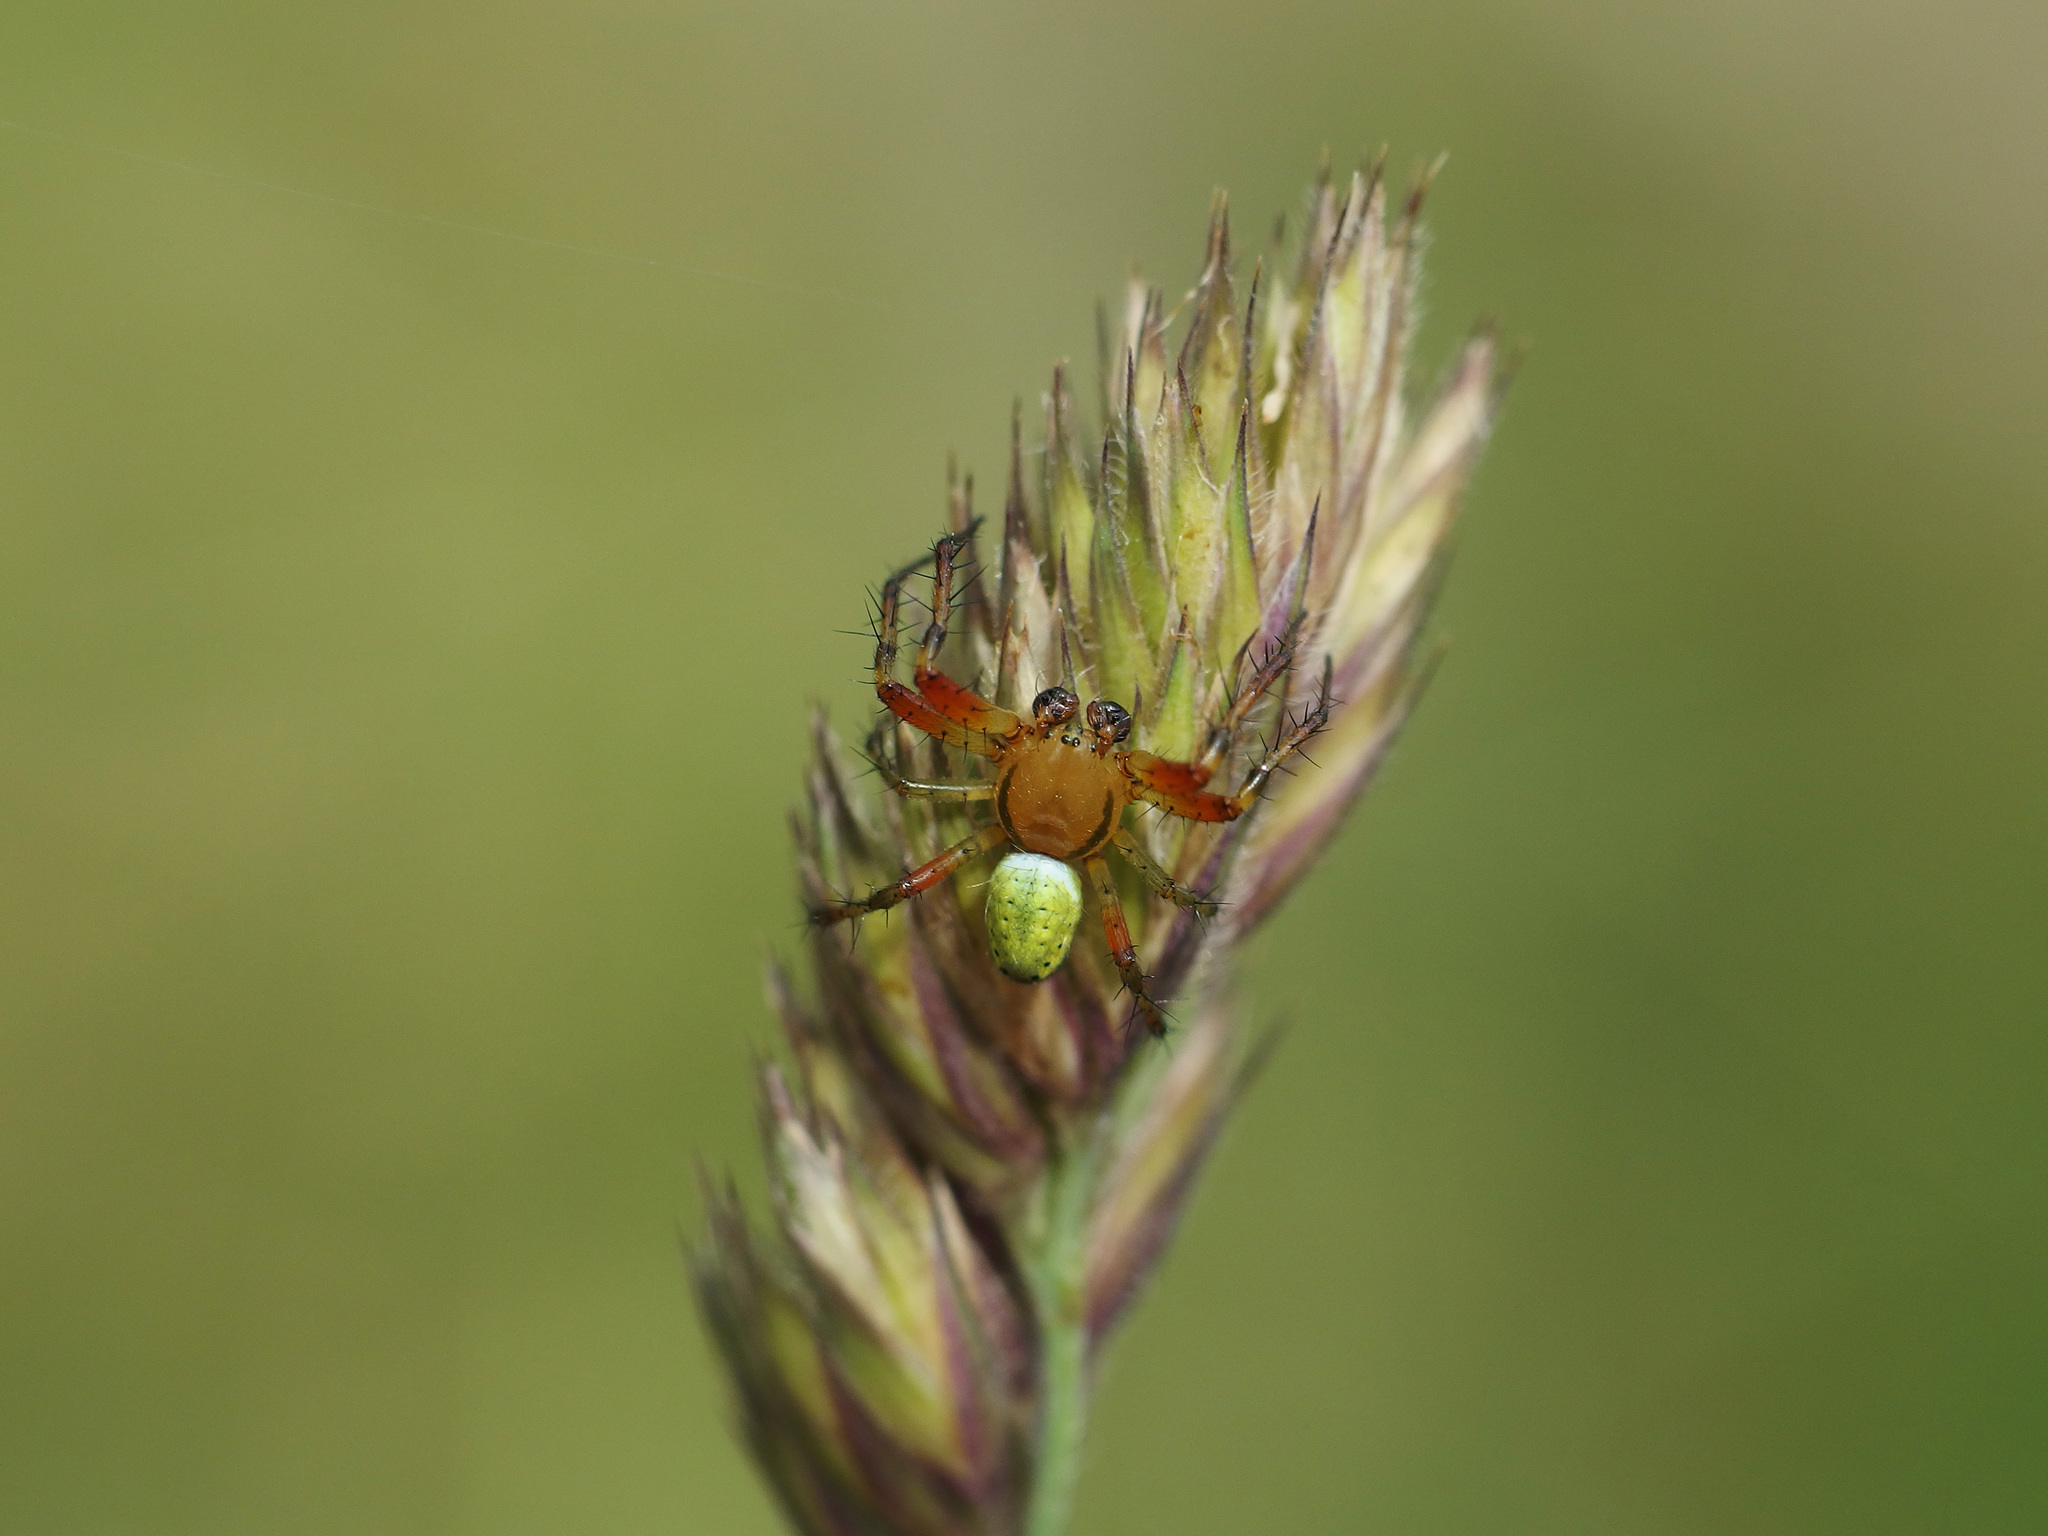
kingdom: Animalia
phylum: Arthropoda
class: Arachnida
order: Araneae
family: Araneidae
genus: Araniella
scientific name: Araniella
